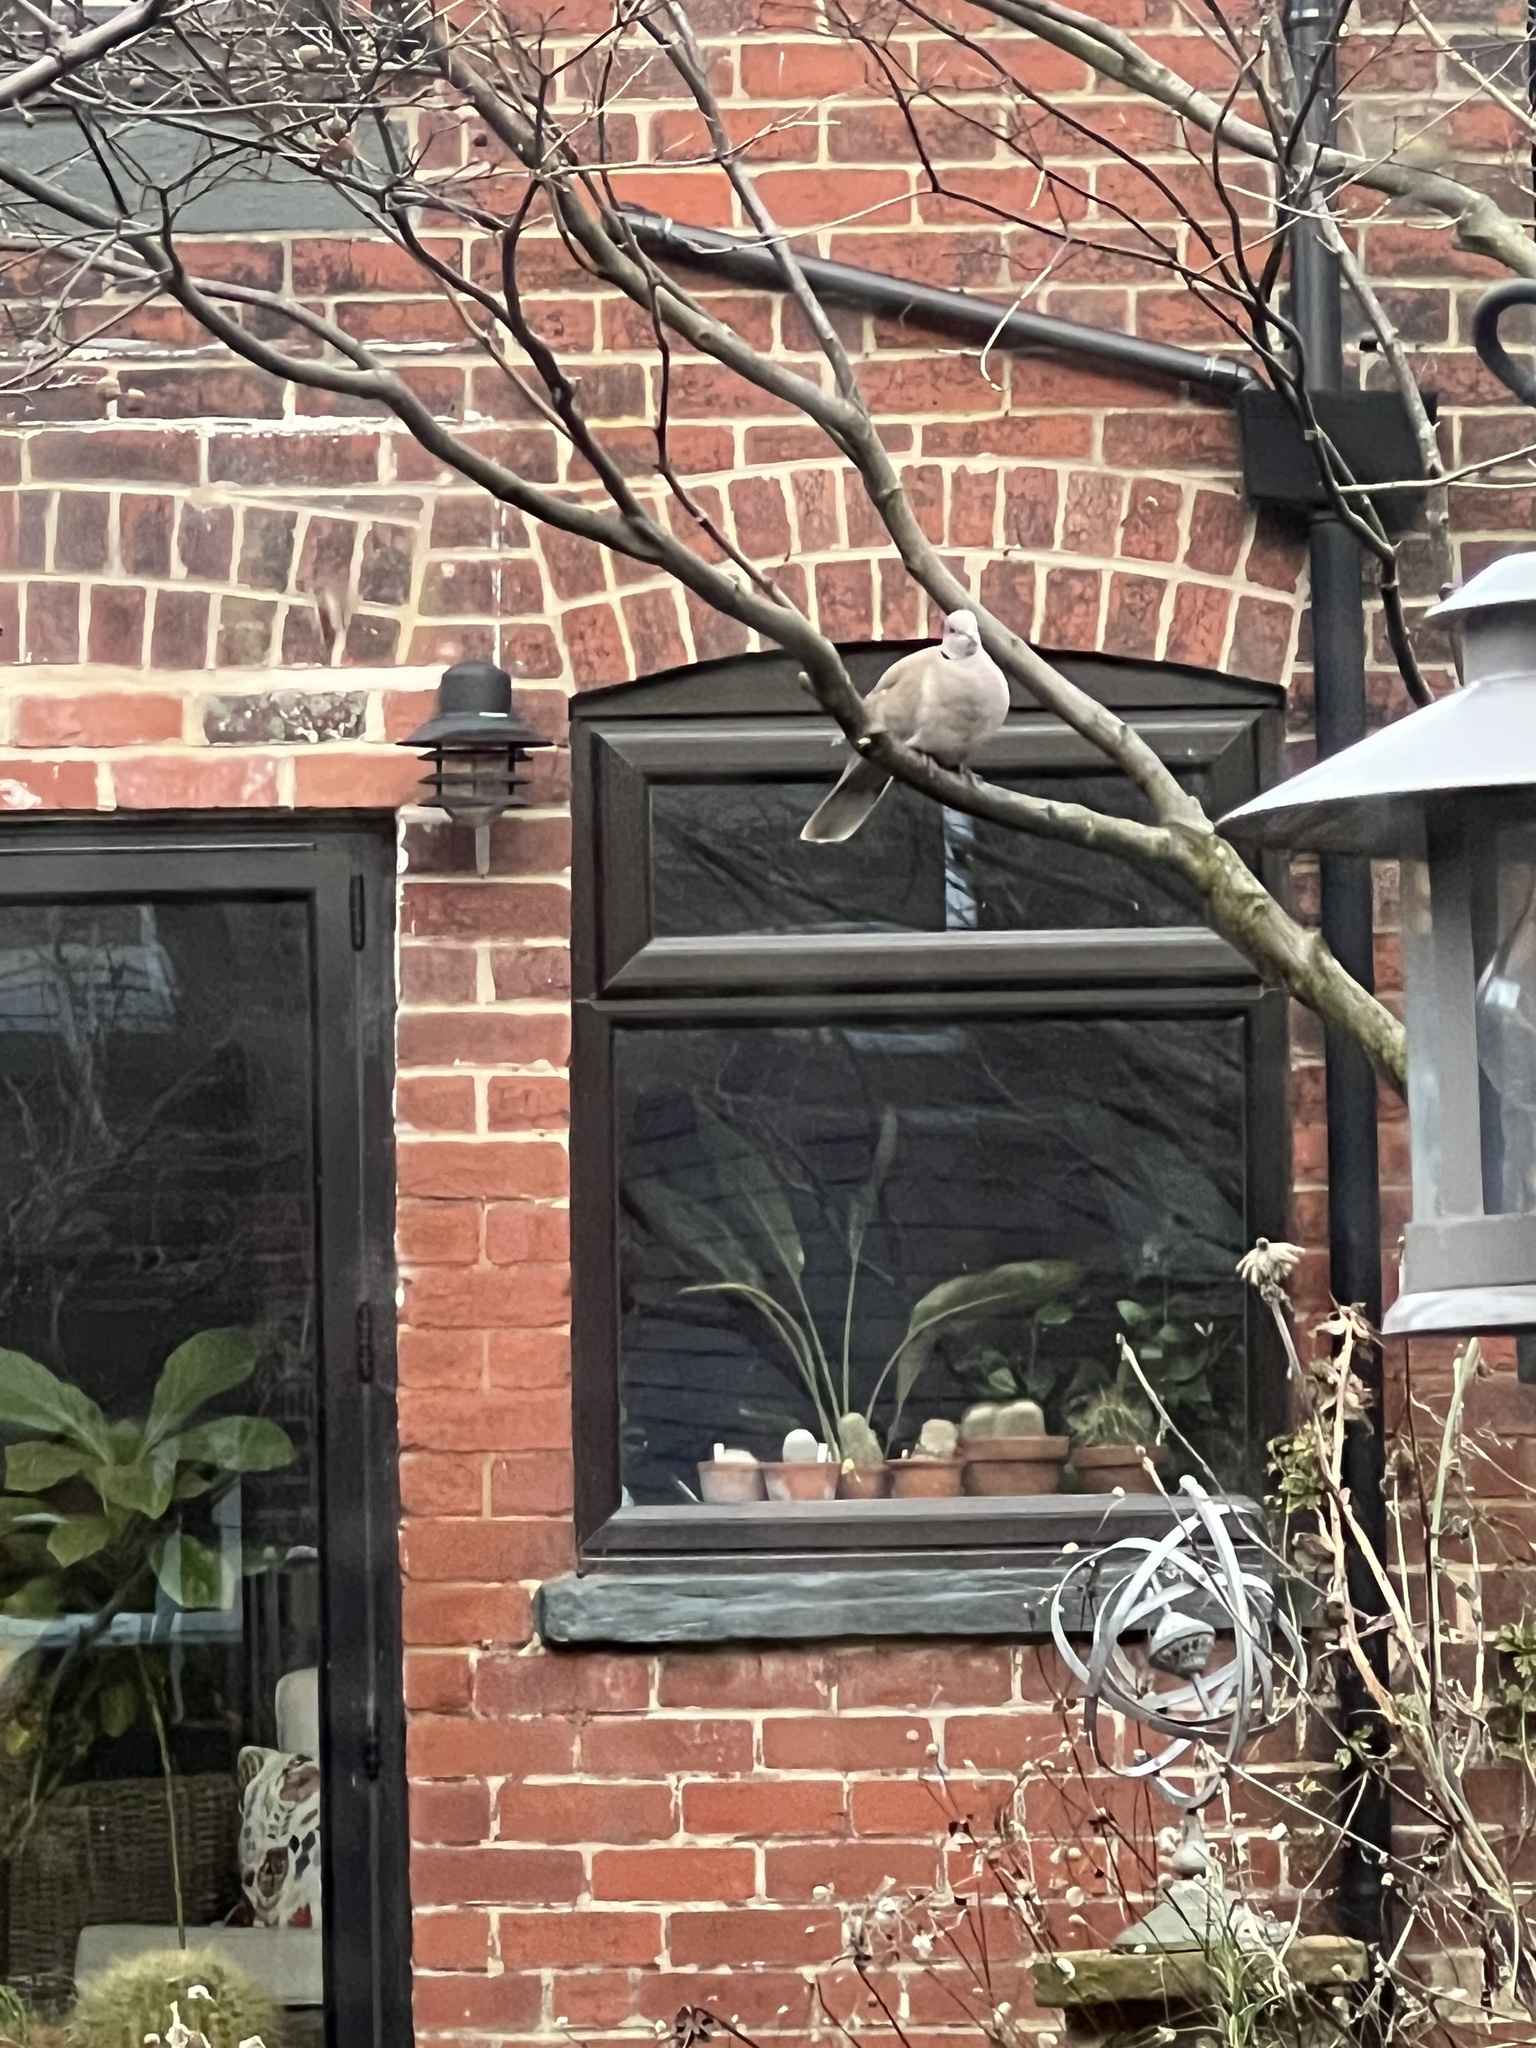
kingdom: Animalia
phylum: Chordata
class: Aves
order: Columbiformes
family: Columbidae
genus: Streptopelia
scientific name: Streptopelia decaocto
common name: Eurasian collared dove
